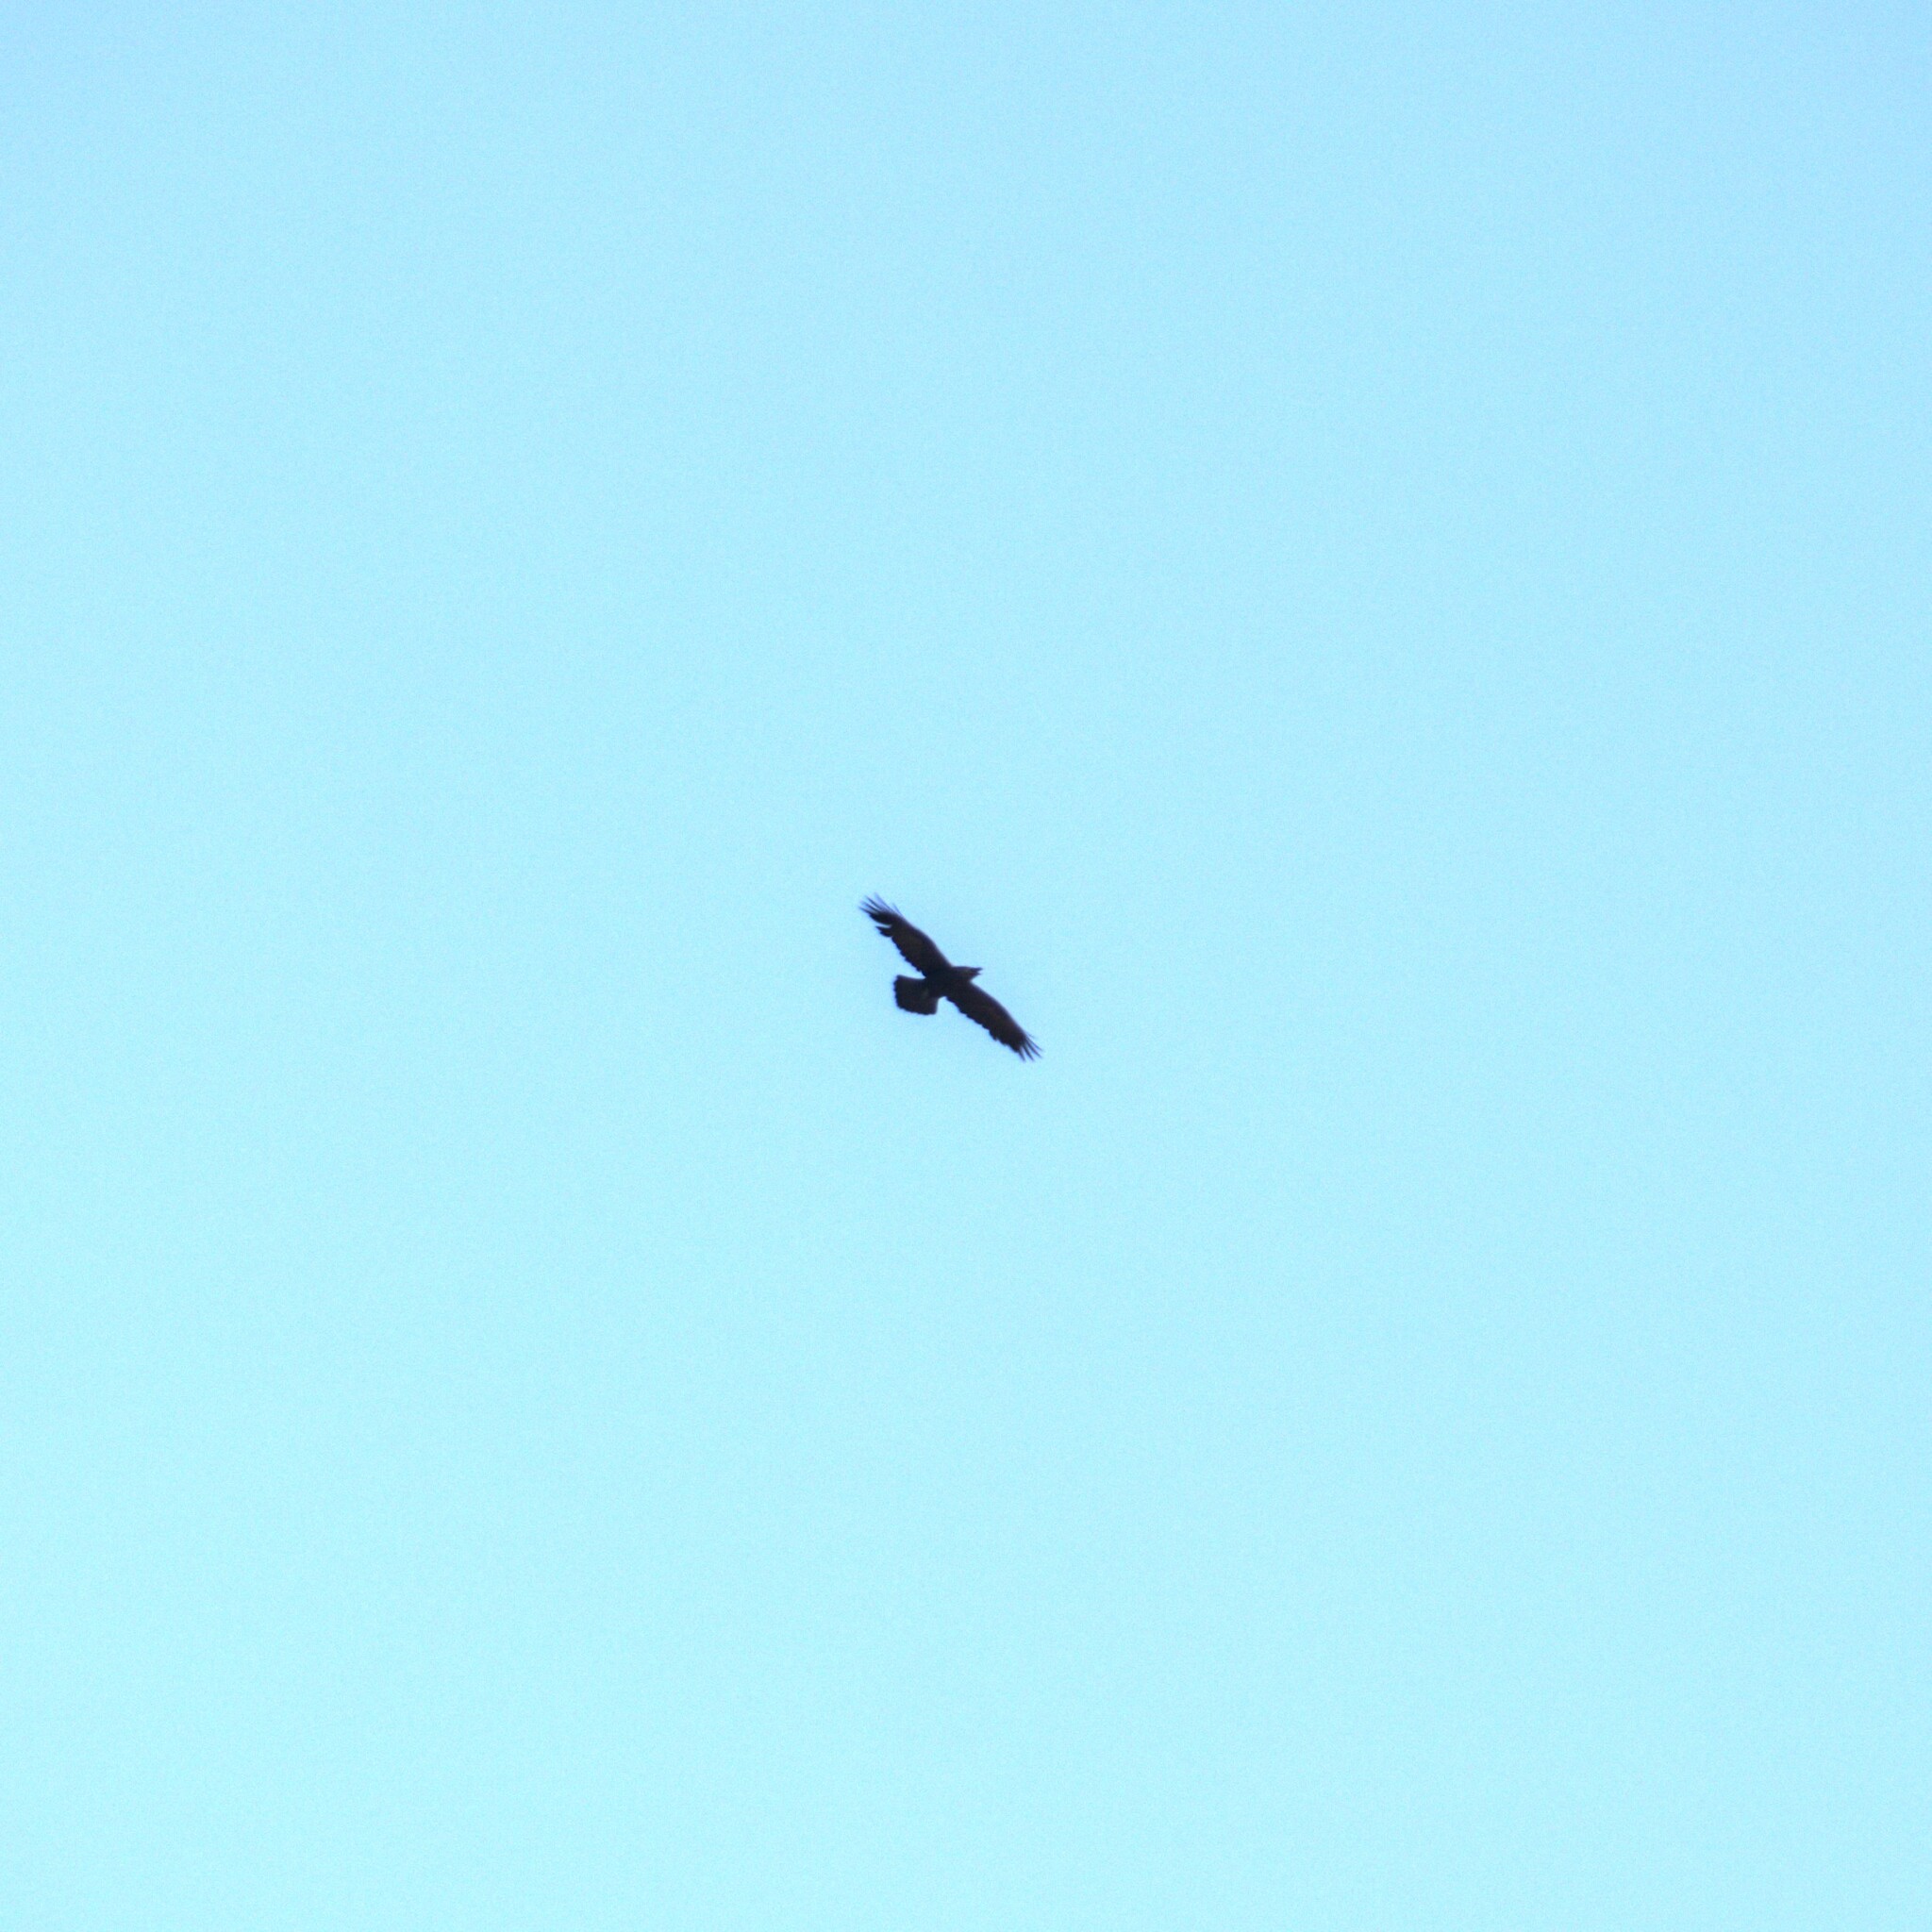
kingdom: Animalia
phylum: Chordata
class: Aves
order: Passeriformes
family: Corvidae
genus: Corvus
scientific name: Corvus corax
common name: Common raven
